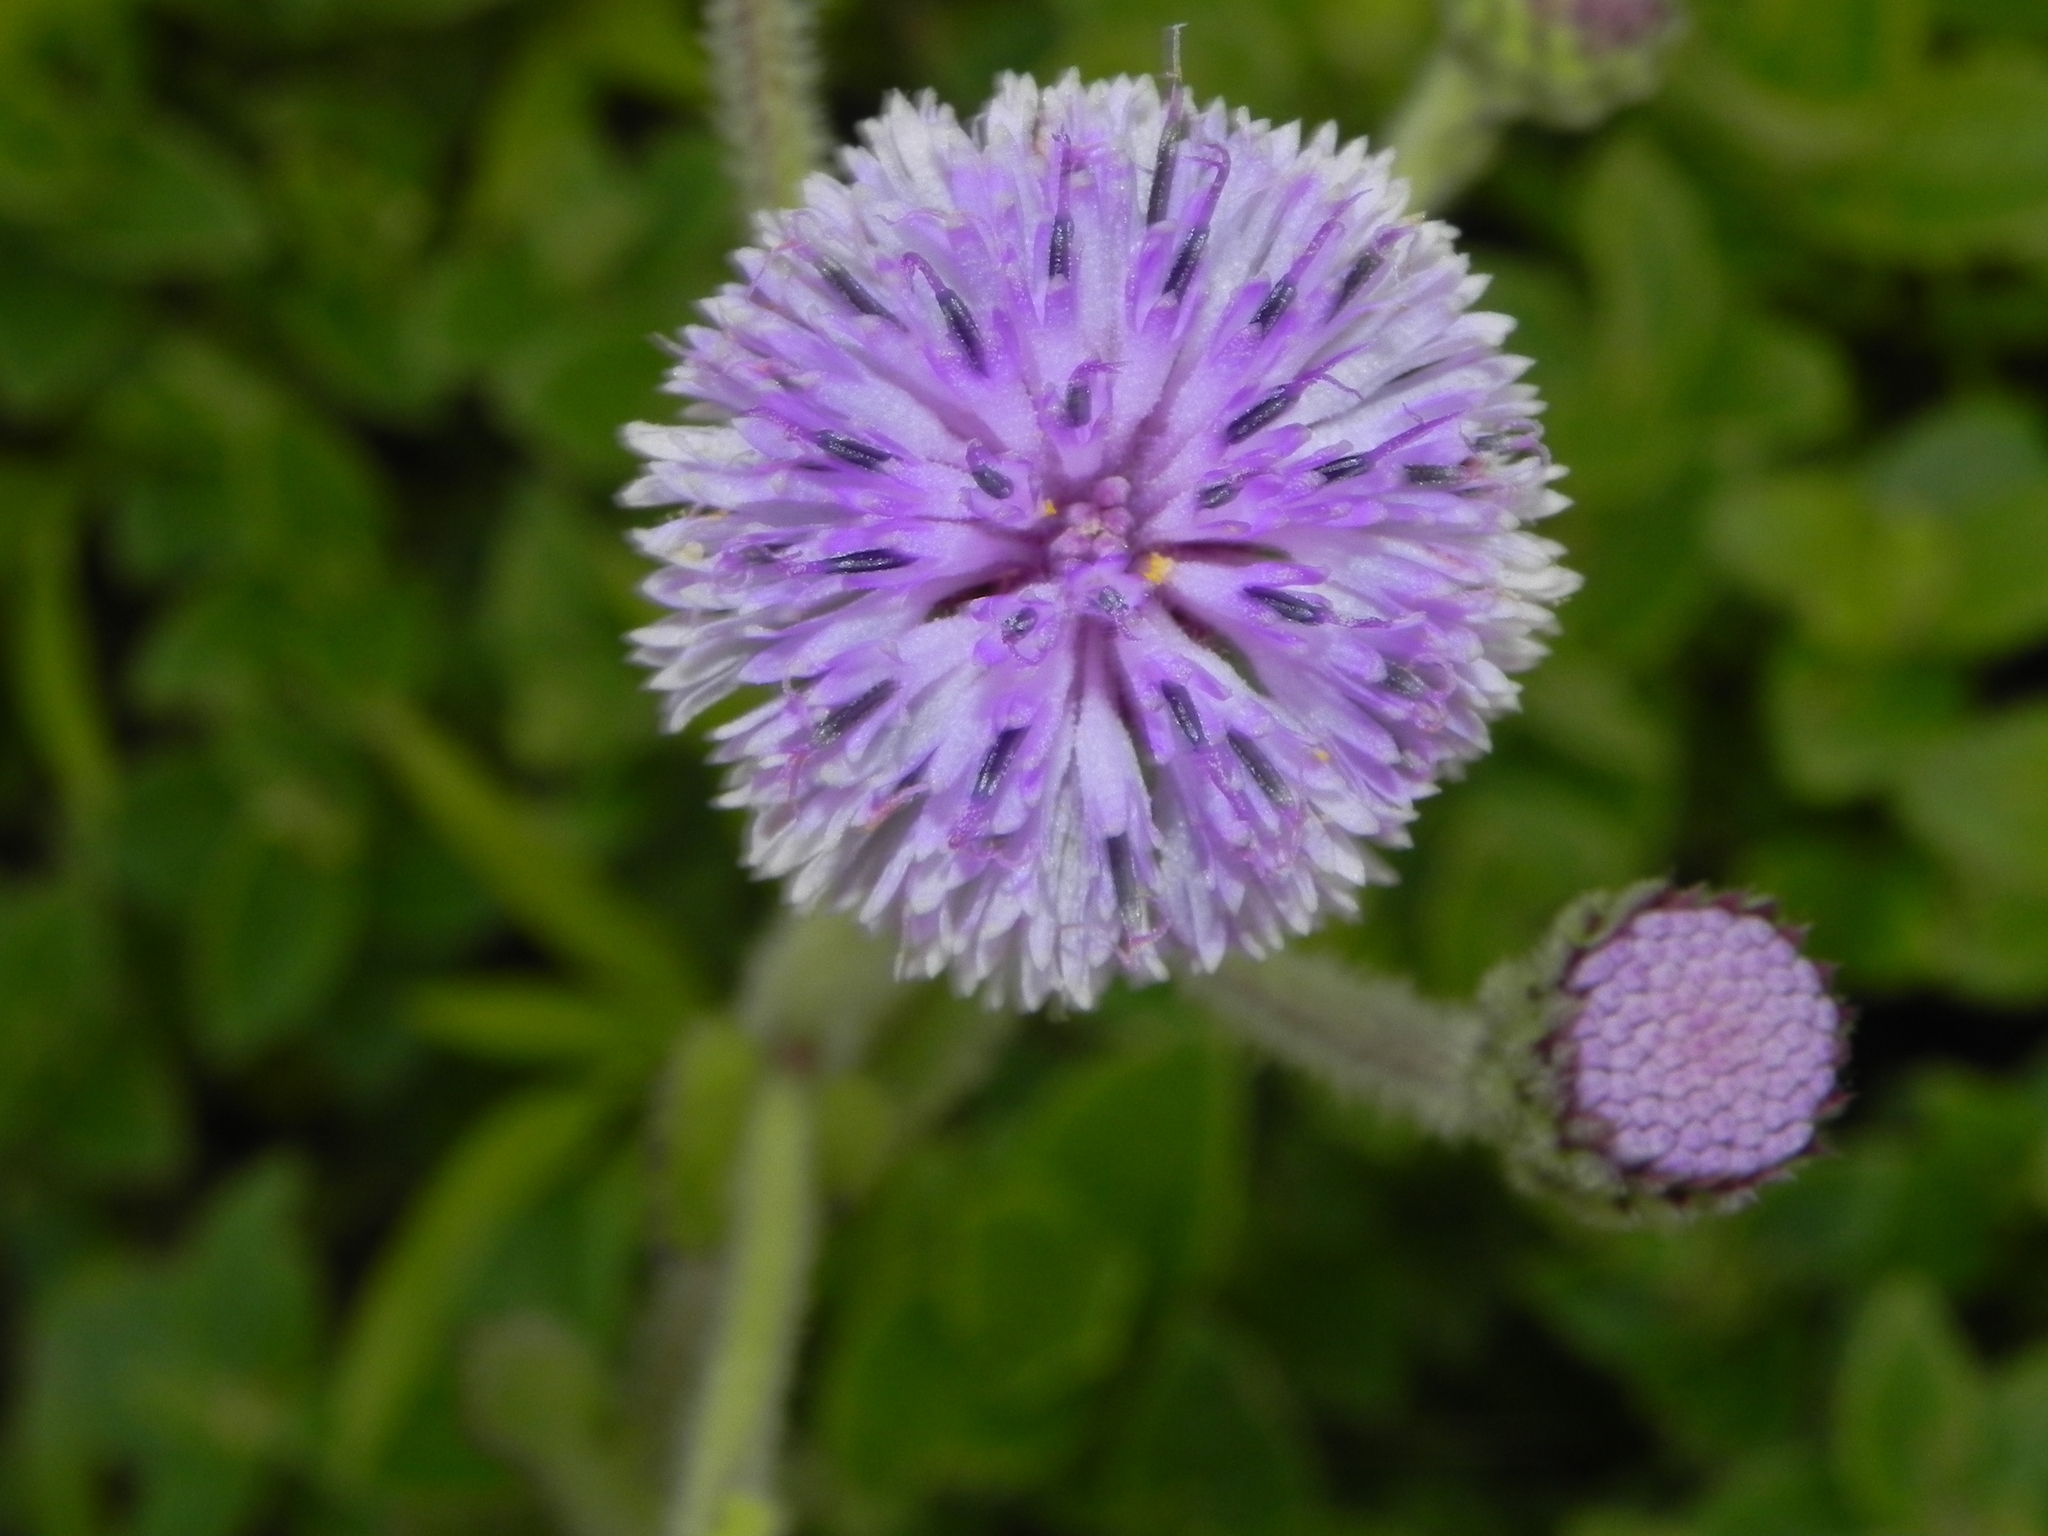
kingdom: Plantae
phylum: Tracheophyta
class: Magnoliopsida
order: Asterales
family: Asteraceae
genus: Adenoon
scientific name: Adenoon indicum
